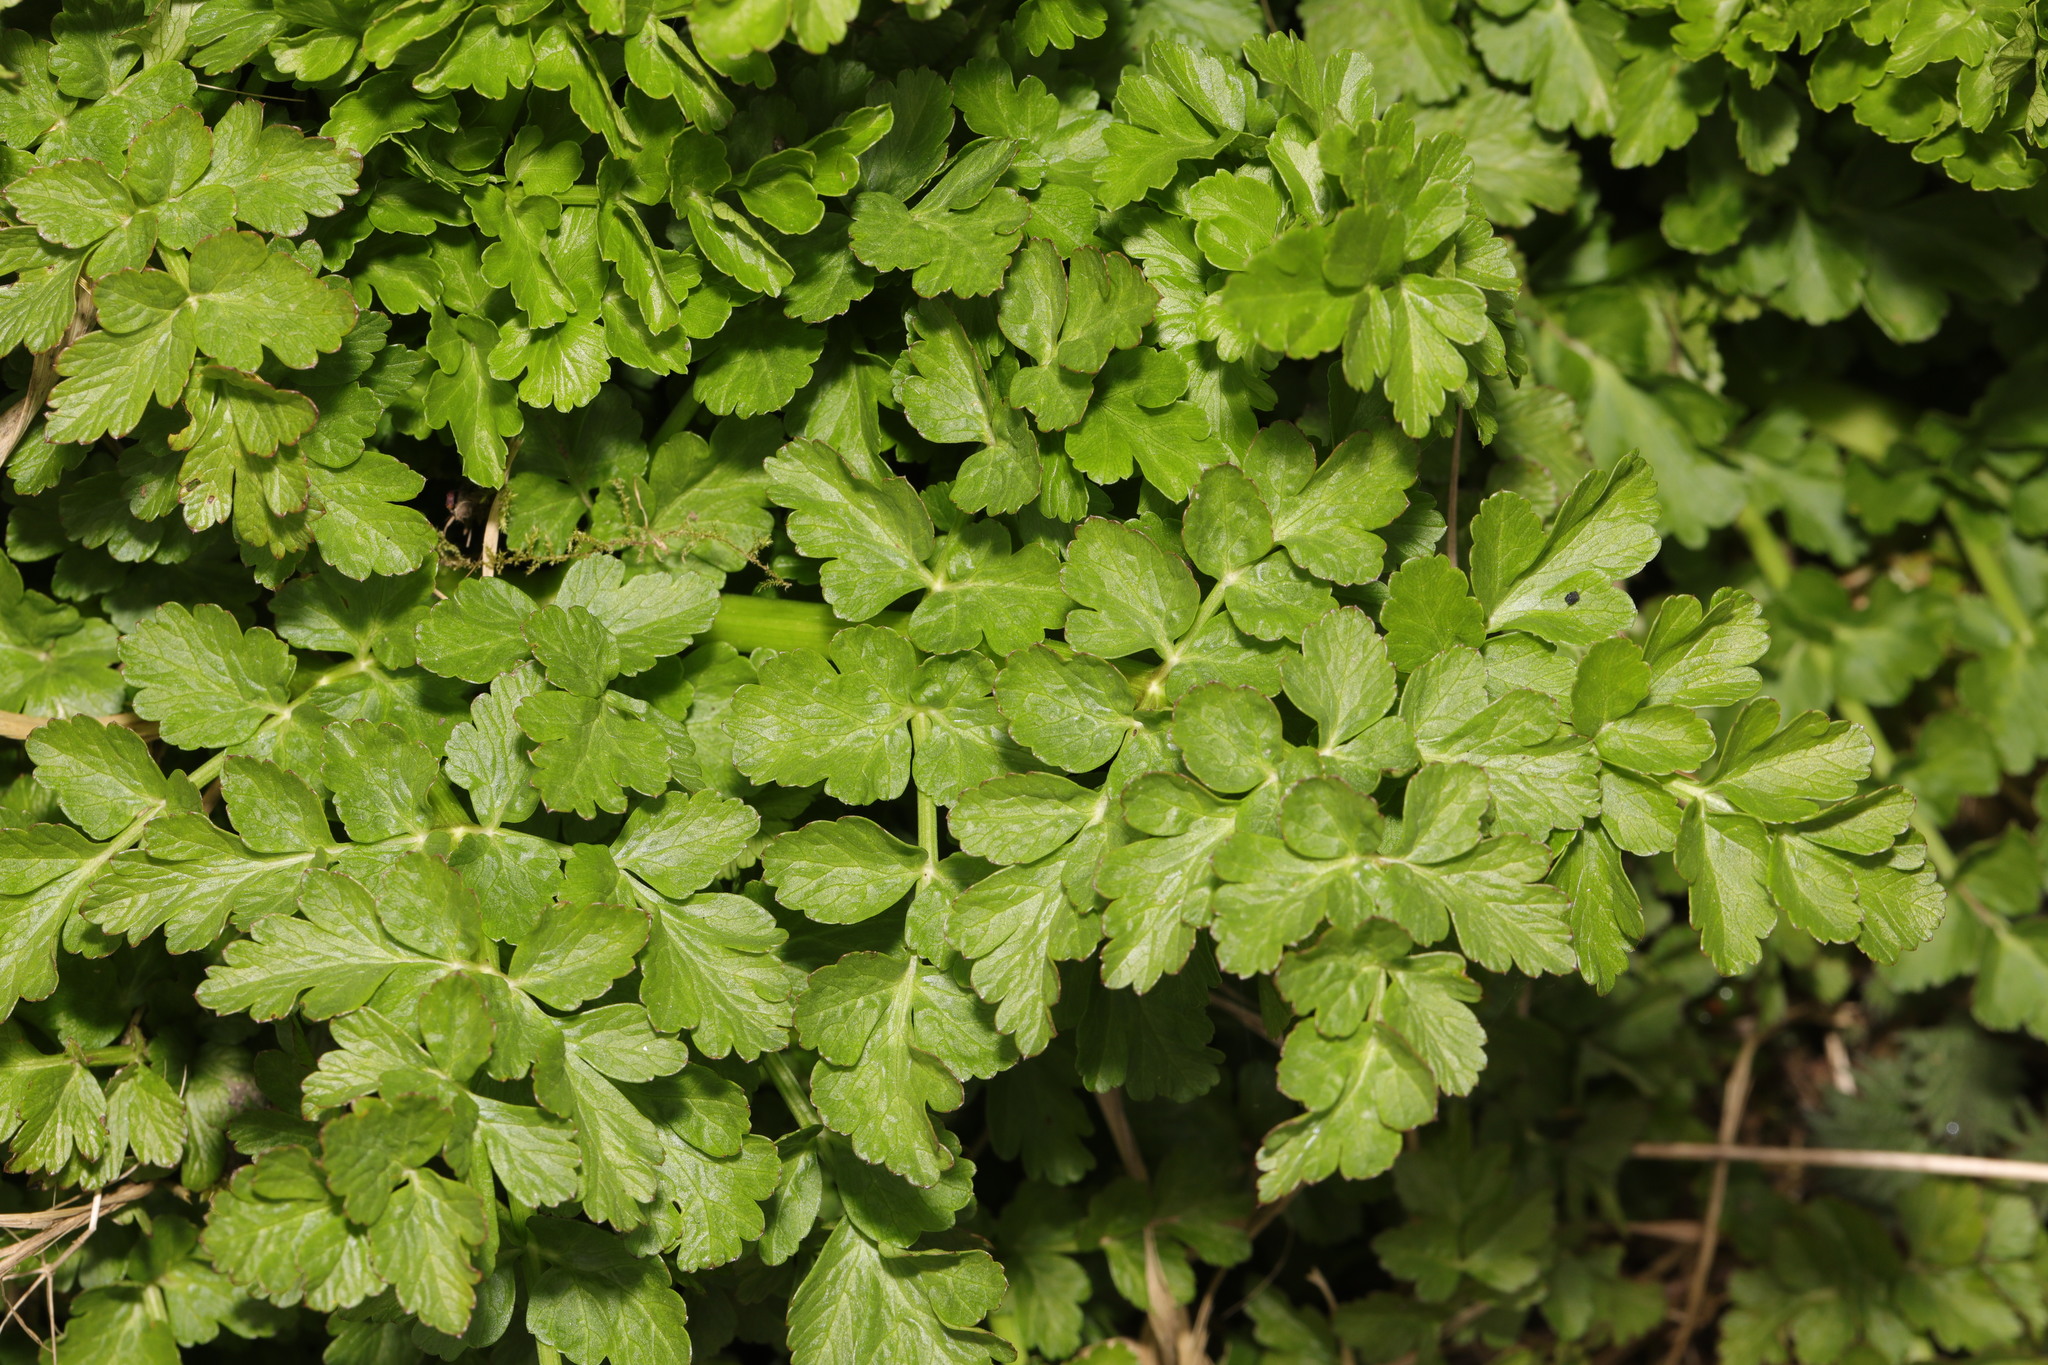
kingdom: Plantae
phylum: Tracheophyta
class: Magnoliopsida
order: Apiales
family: Apiaceae
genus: Oenanthe
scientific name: Oenanthe crocata
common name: Hemlock water-dropwort
